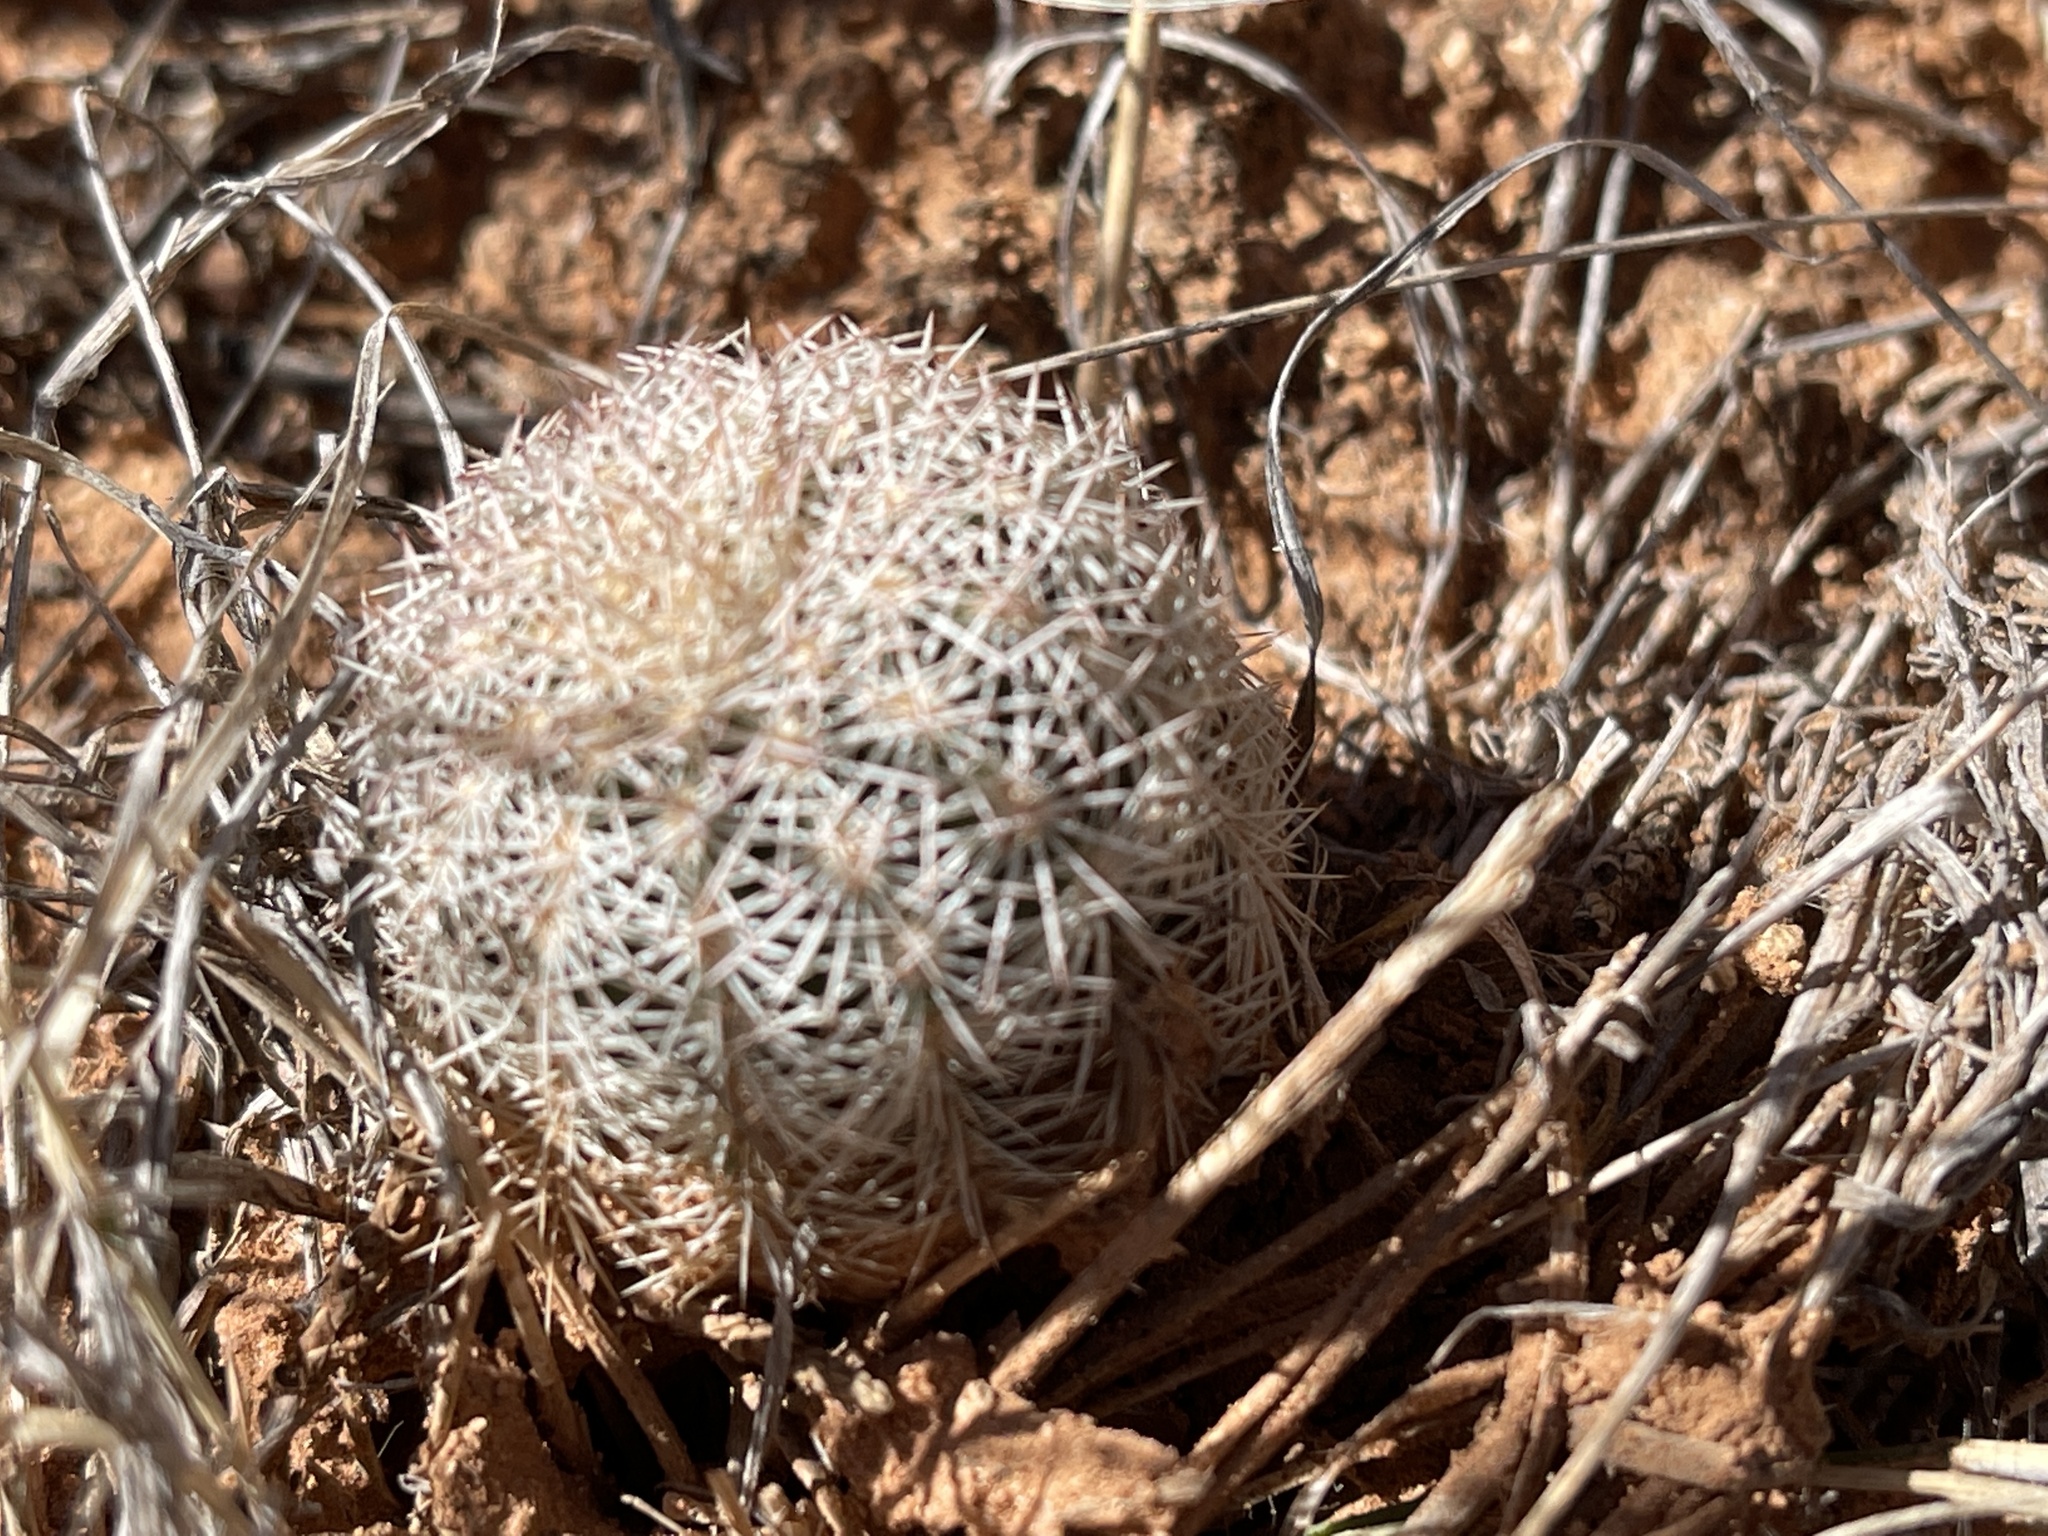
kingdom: Plantae
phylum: Tracheophyta
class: Magnoliopsida
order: Caryophyllales
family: Cactaceae
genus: Echinocereus
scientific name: Echinocereus reichenbachii
